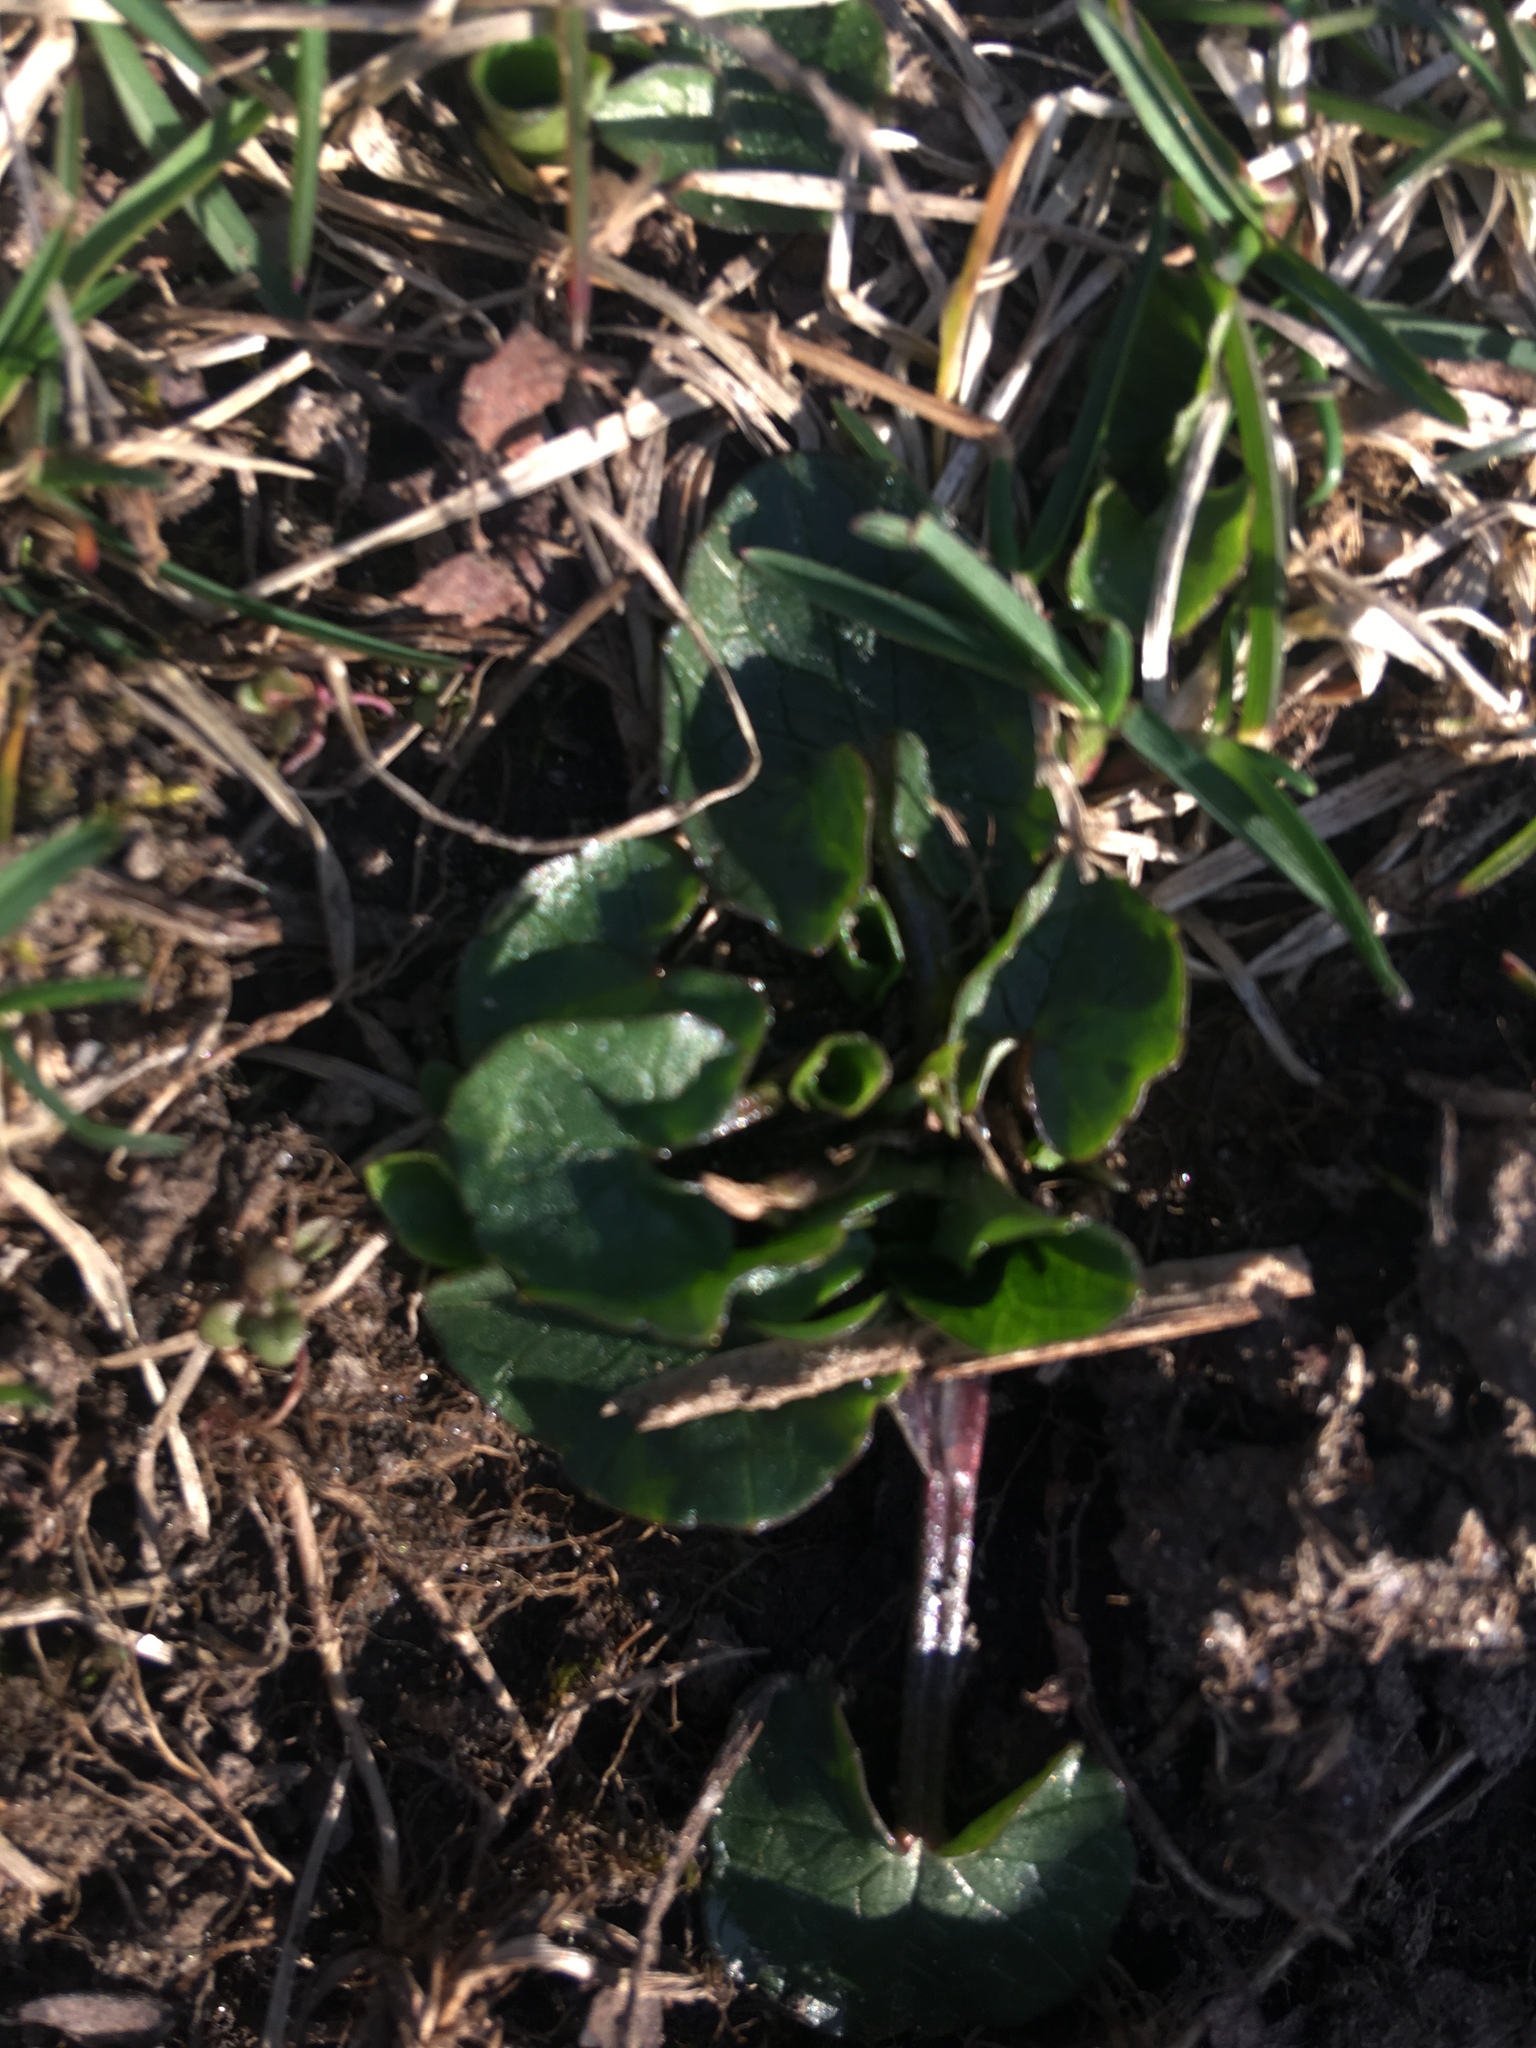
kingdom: Plantae
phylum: Tracheophyta
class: Magnoliopsida
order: Ranunculales
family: Ranunculaceae
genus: Ficaria
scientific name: Ficaria verna
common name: Lesser celandine
